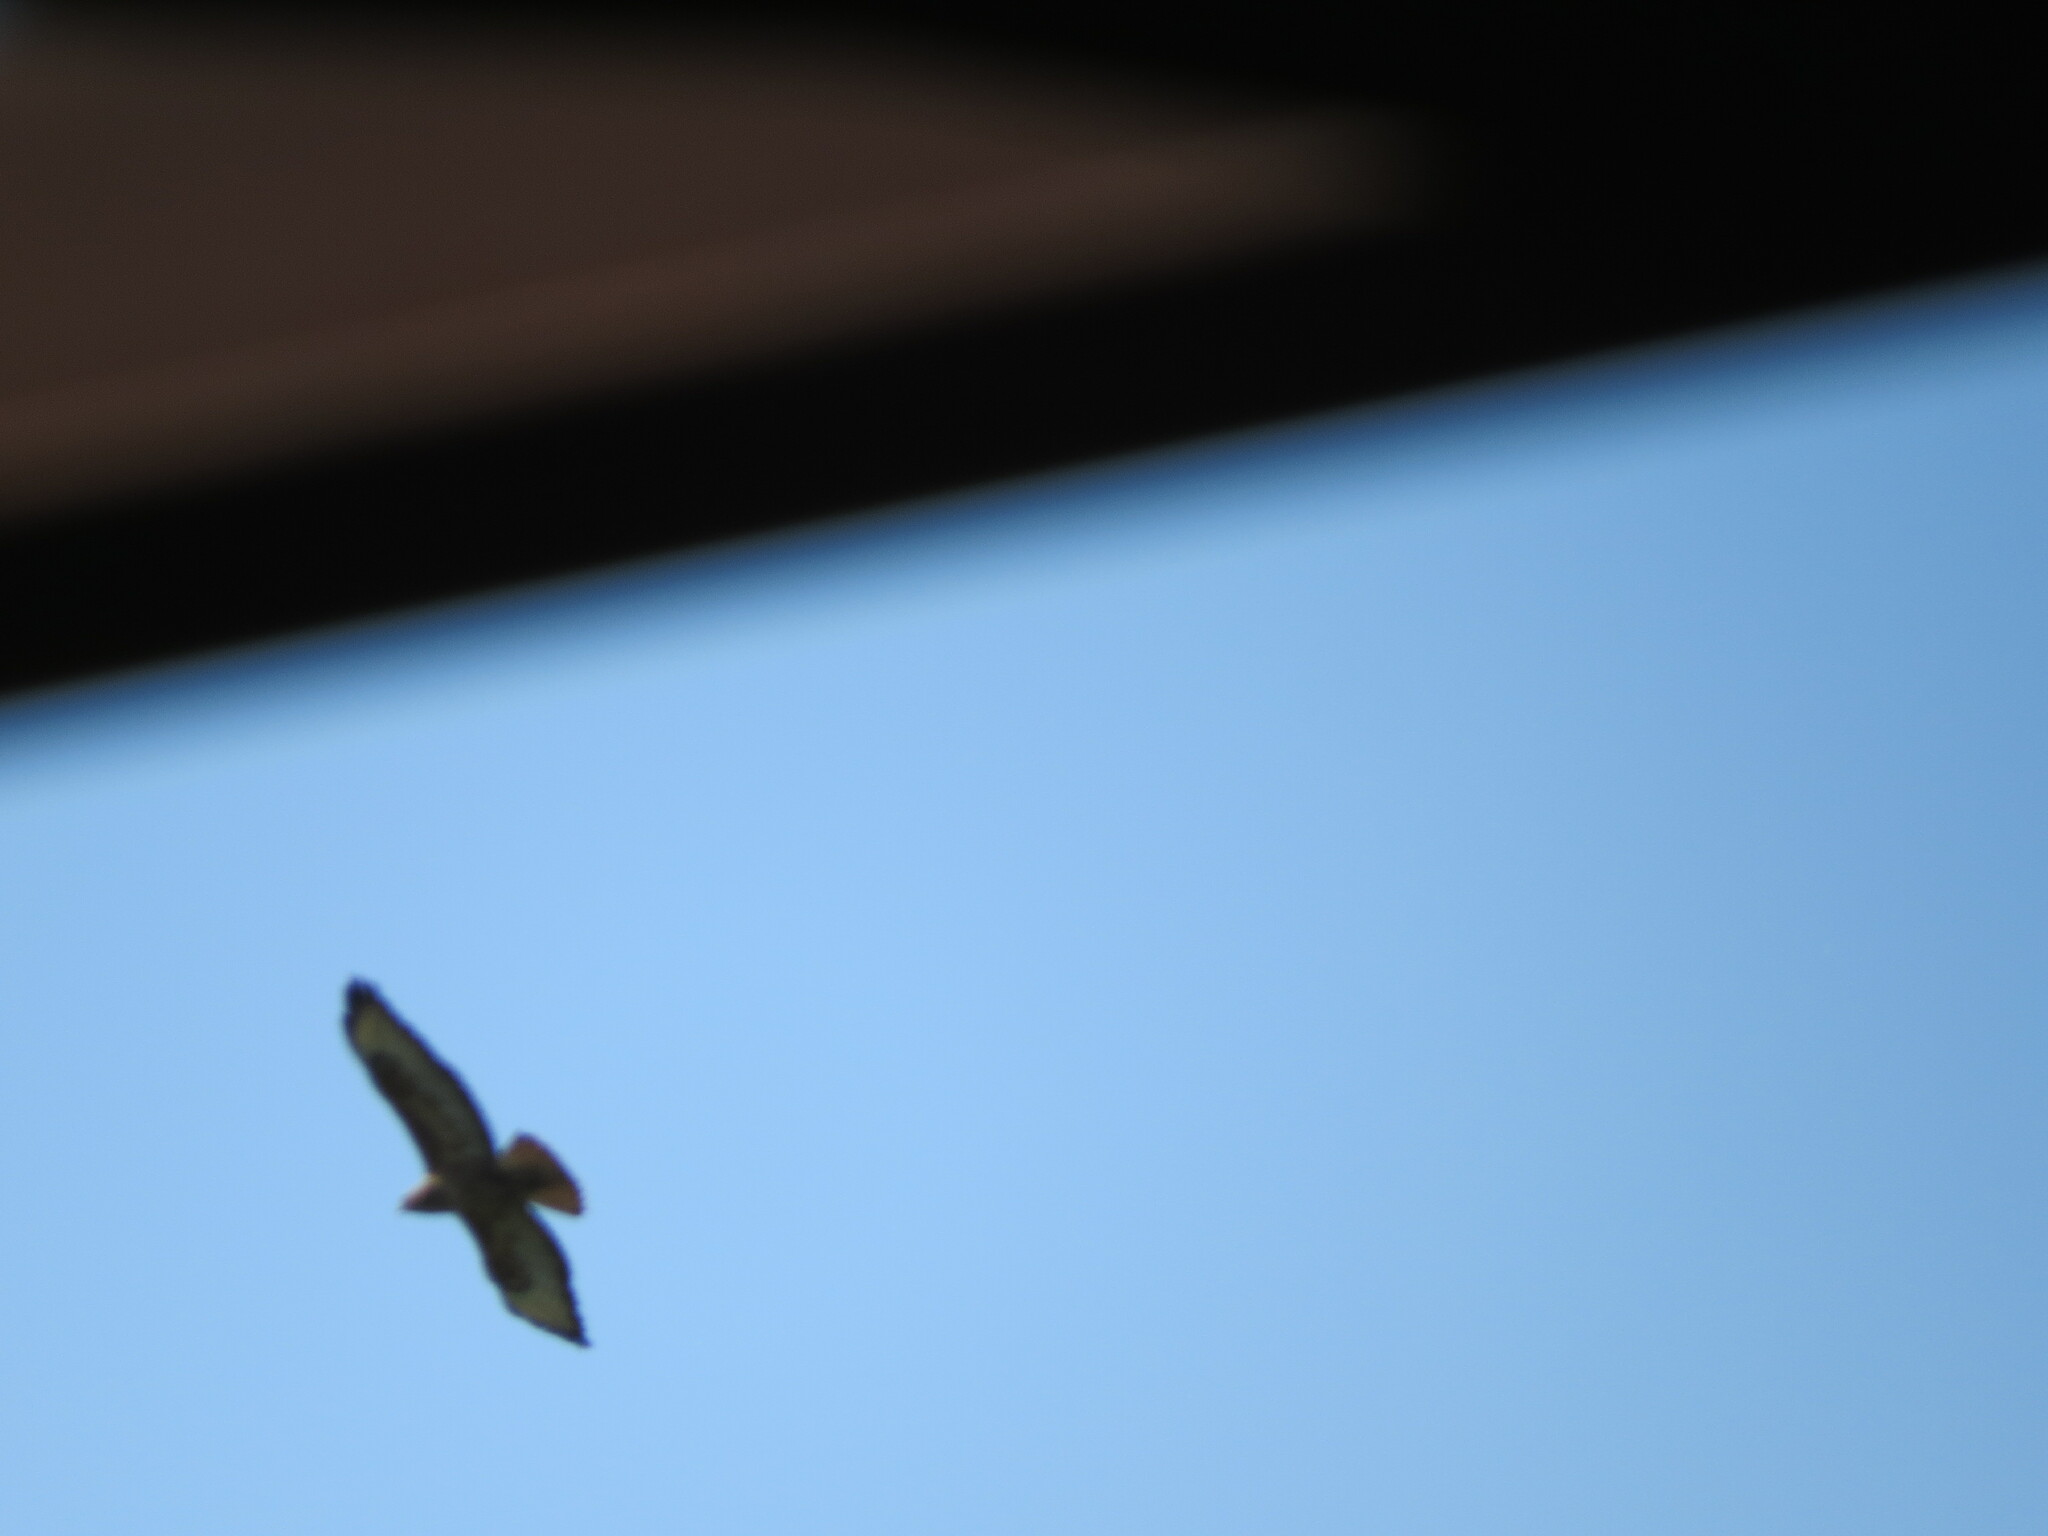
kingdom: Animalia
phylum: Chordata
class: Aves
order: Accipitriformes
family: Accipitridae
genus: Buteo
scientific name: Buteo buteo
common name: Common buzzard
